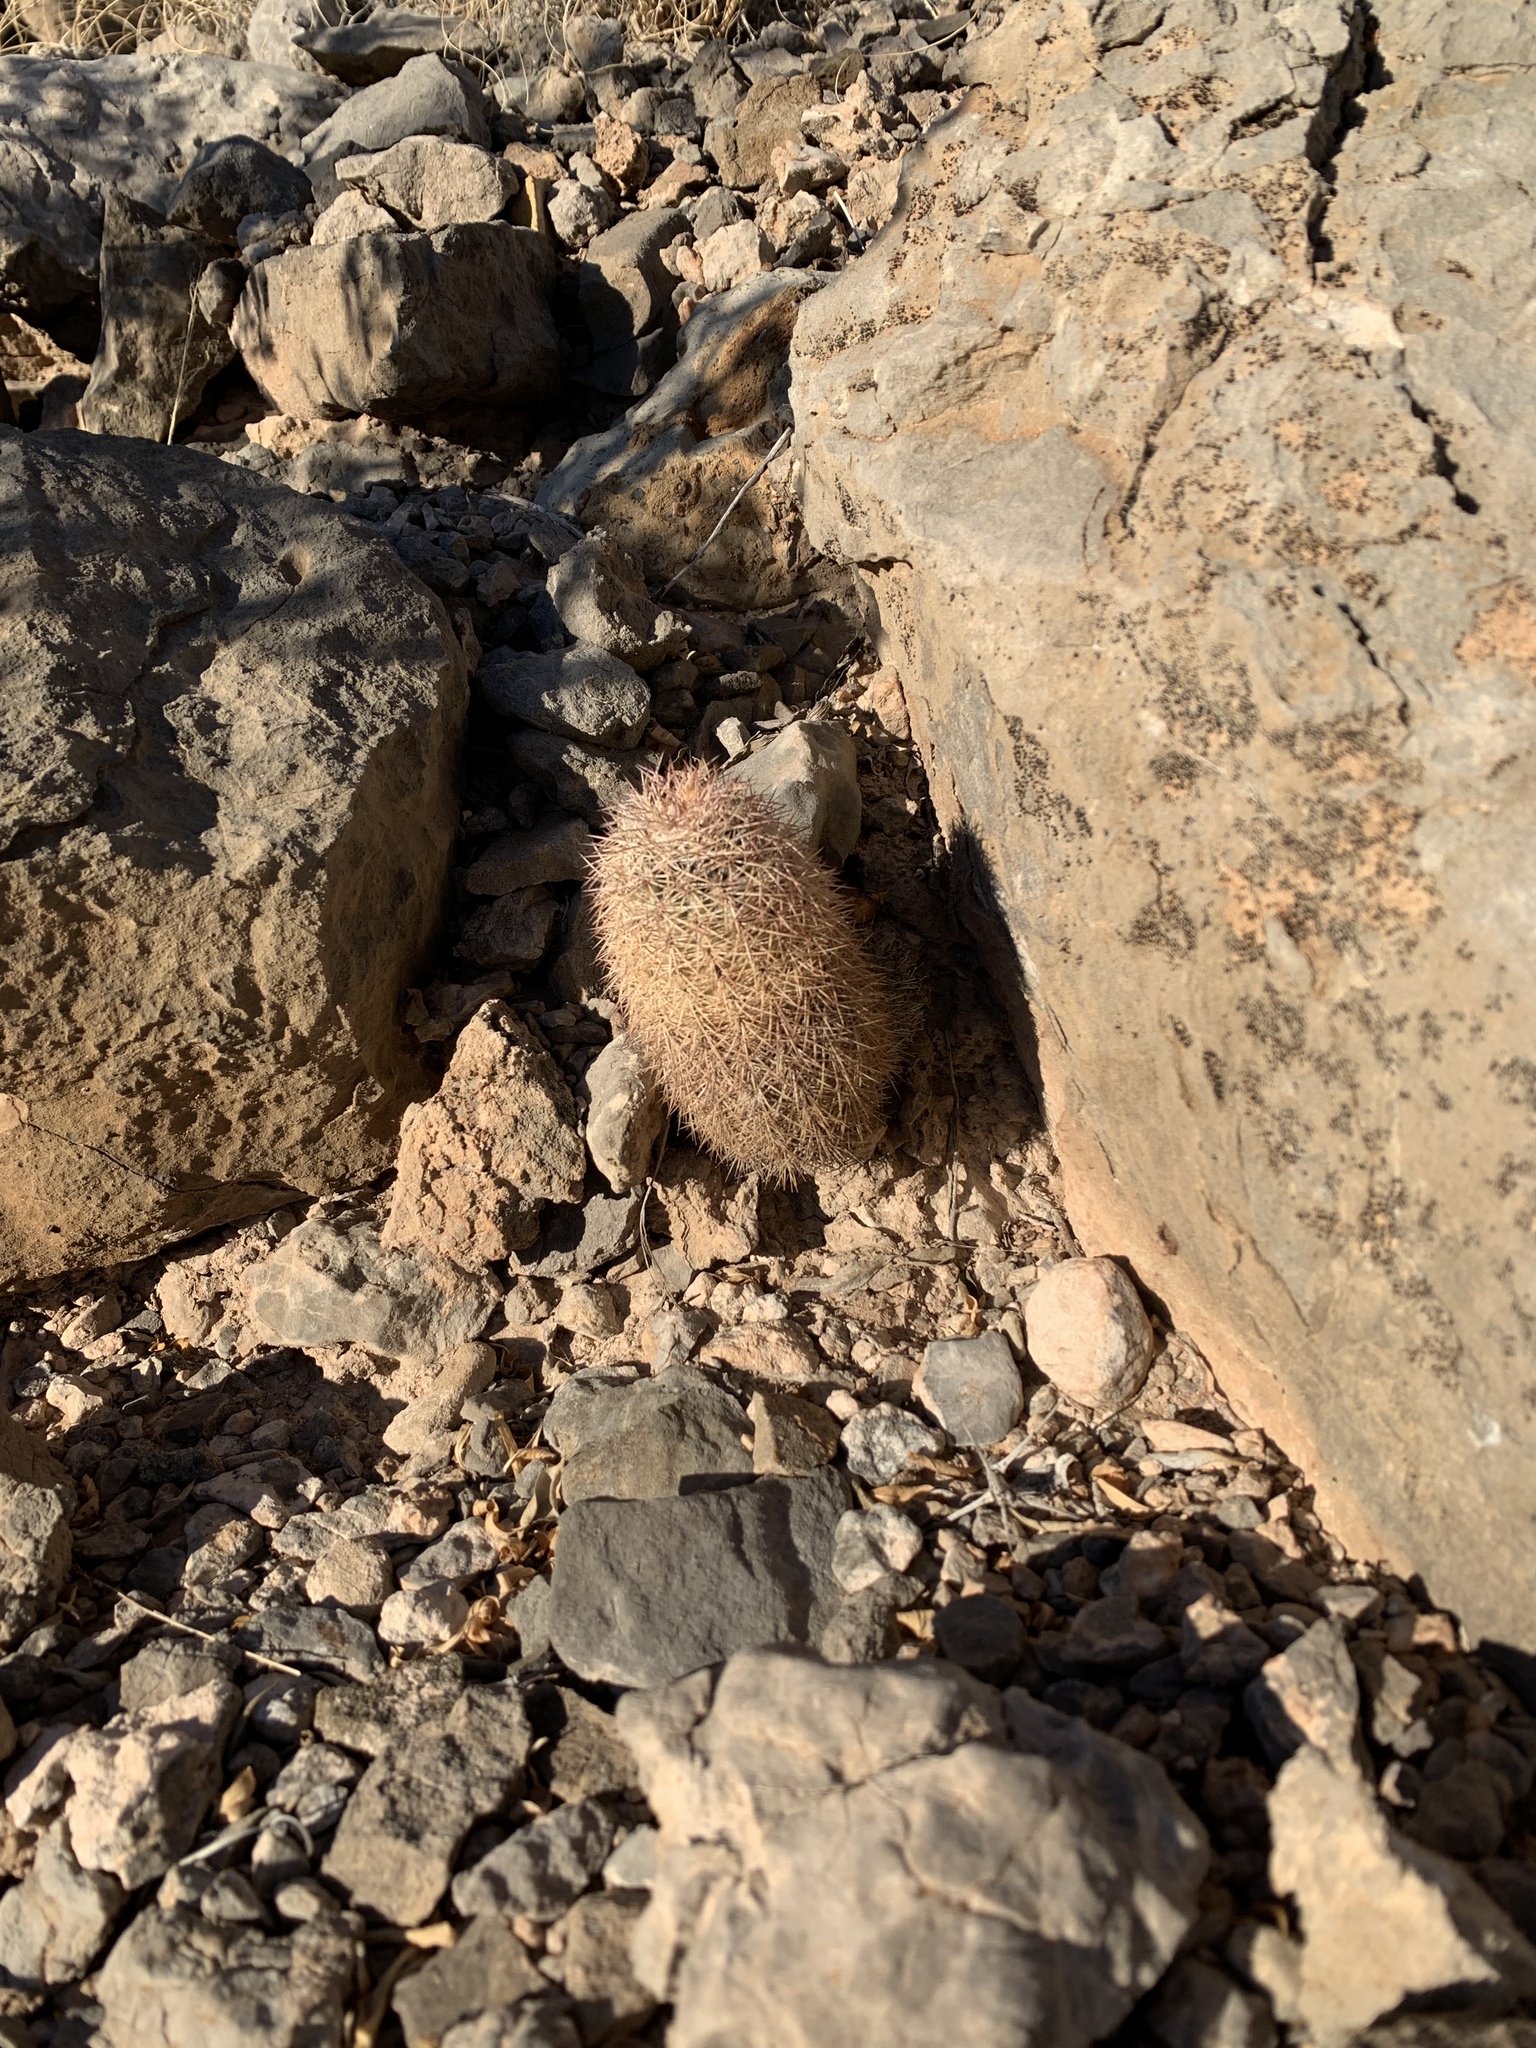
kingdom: Plantae
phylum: Tracheophyta
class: Magnoliopsida
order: Caryophyllales
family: Cactaceae
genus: Echinocereus
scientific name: Echinocereus dasyacanthus
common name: Spiny hedgehog cactus
